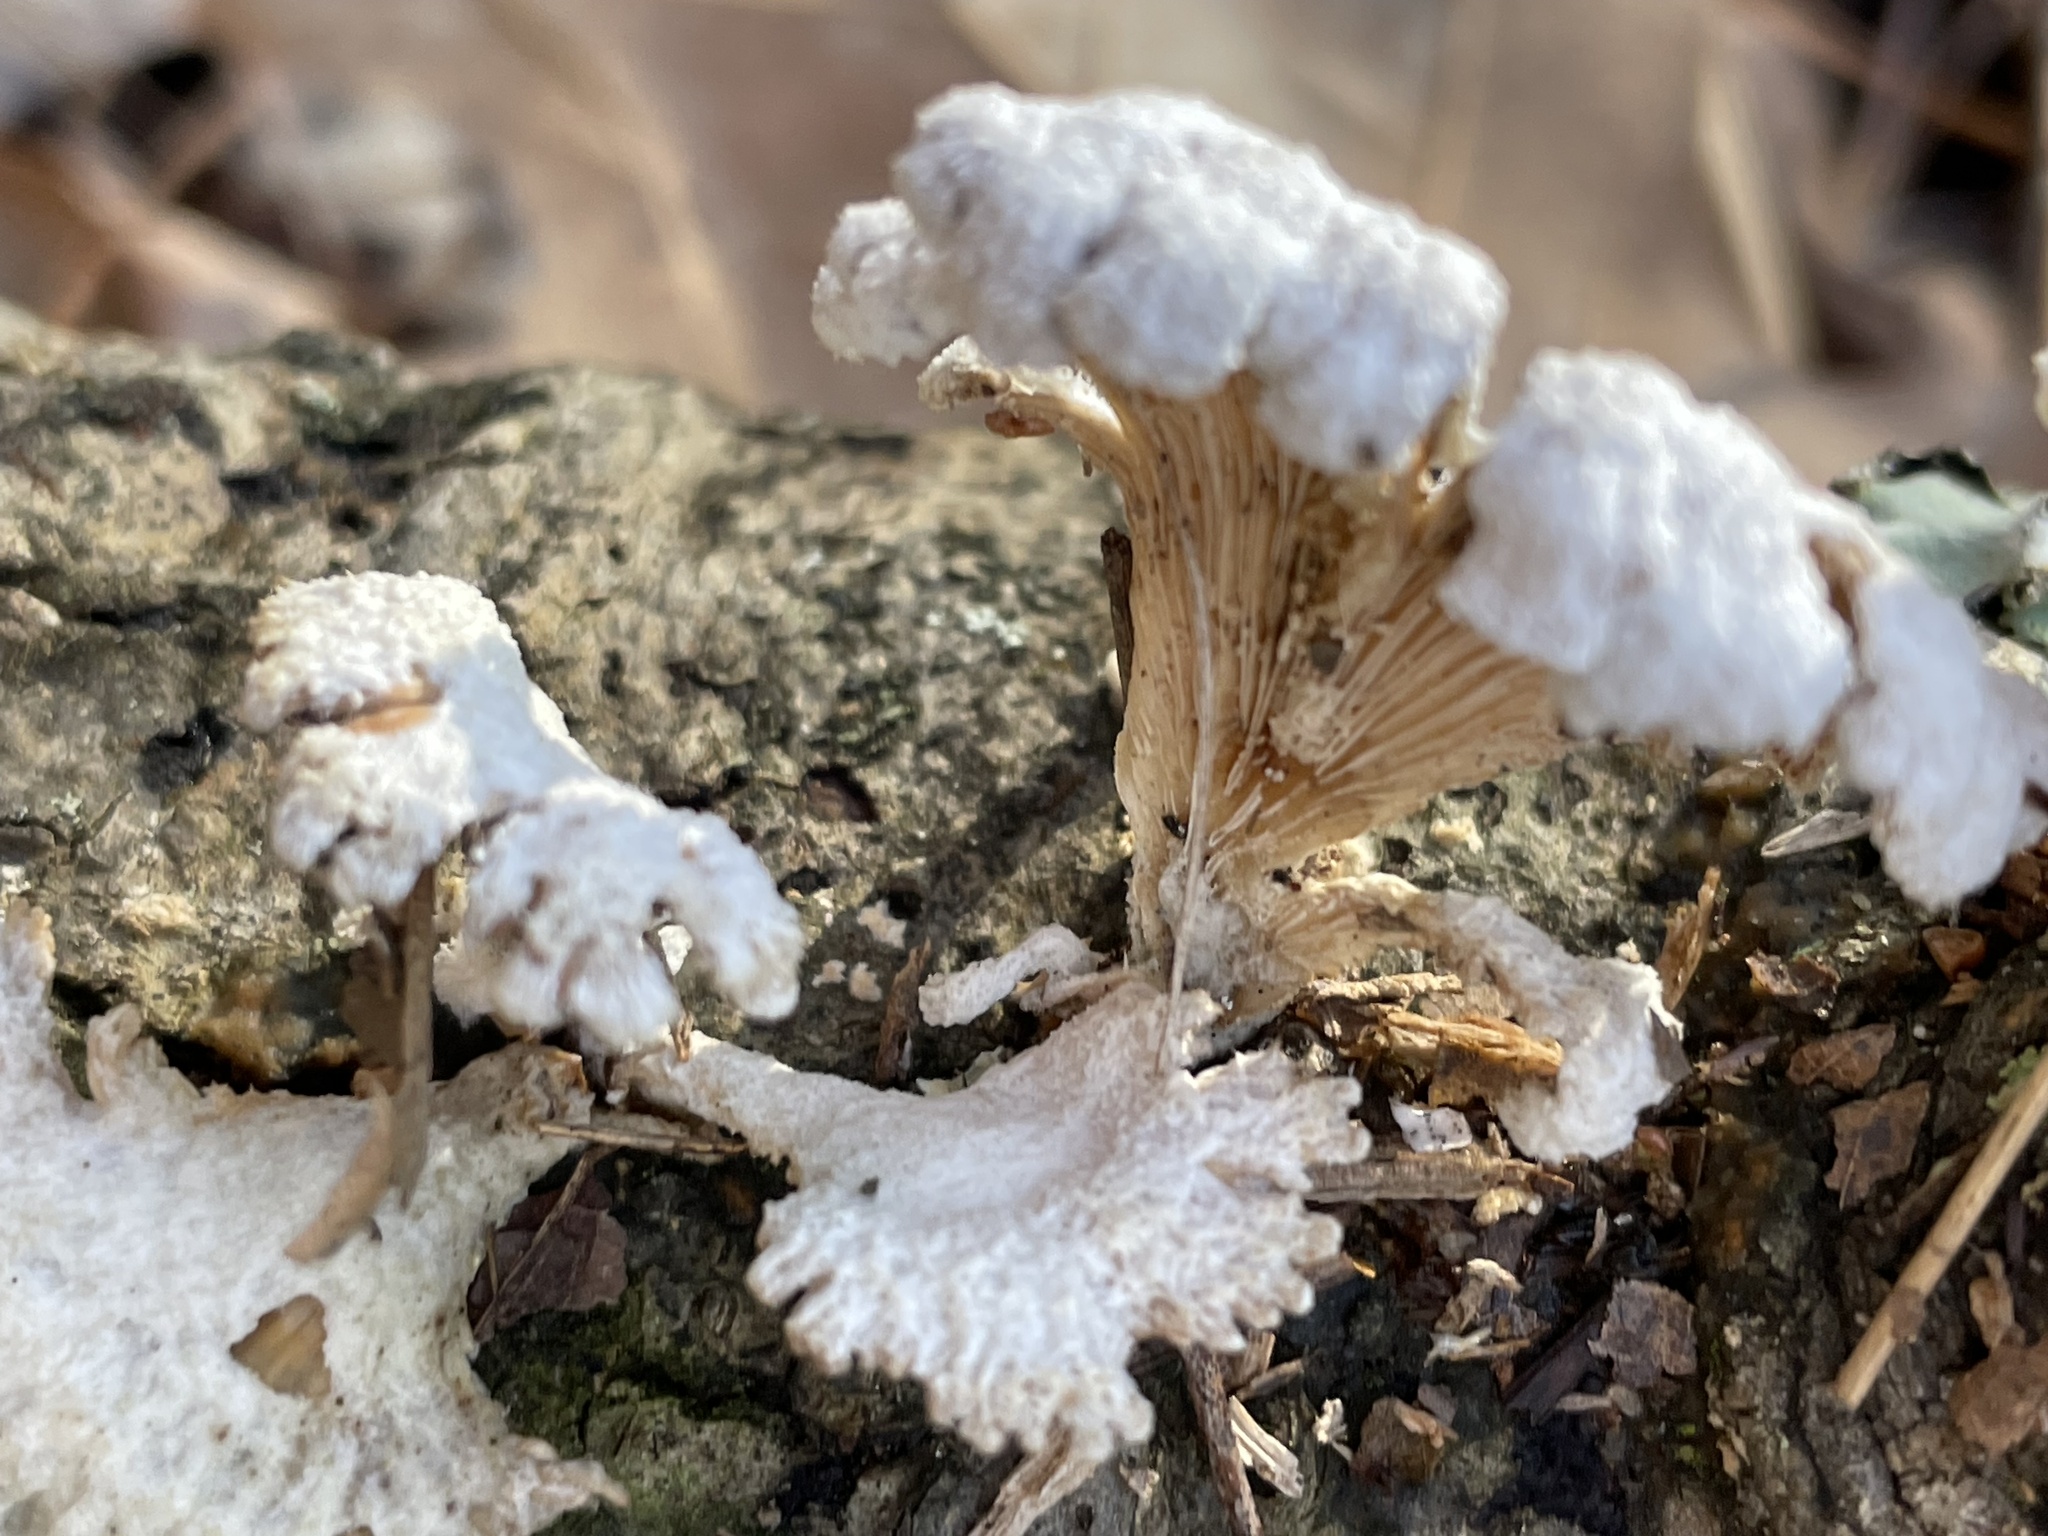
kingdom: Fungi
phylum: Basidiomycota
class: Agaricomycetes
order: Agaricales
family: Schizophyllaceae
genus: Schizophyllum
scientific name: Schizophyllum commune
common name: Common porecrust
